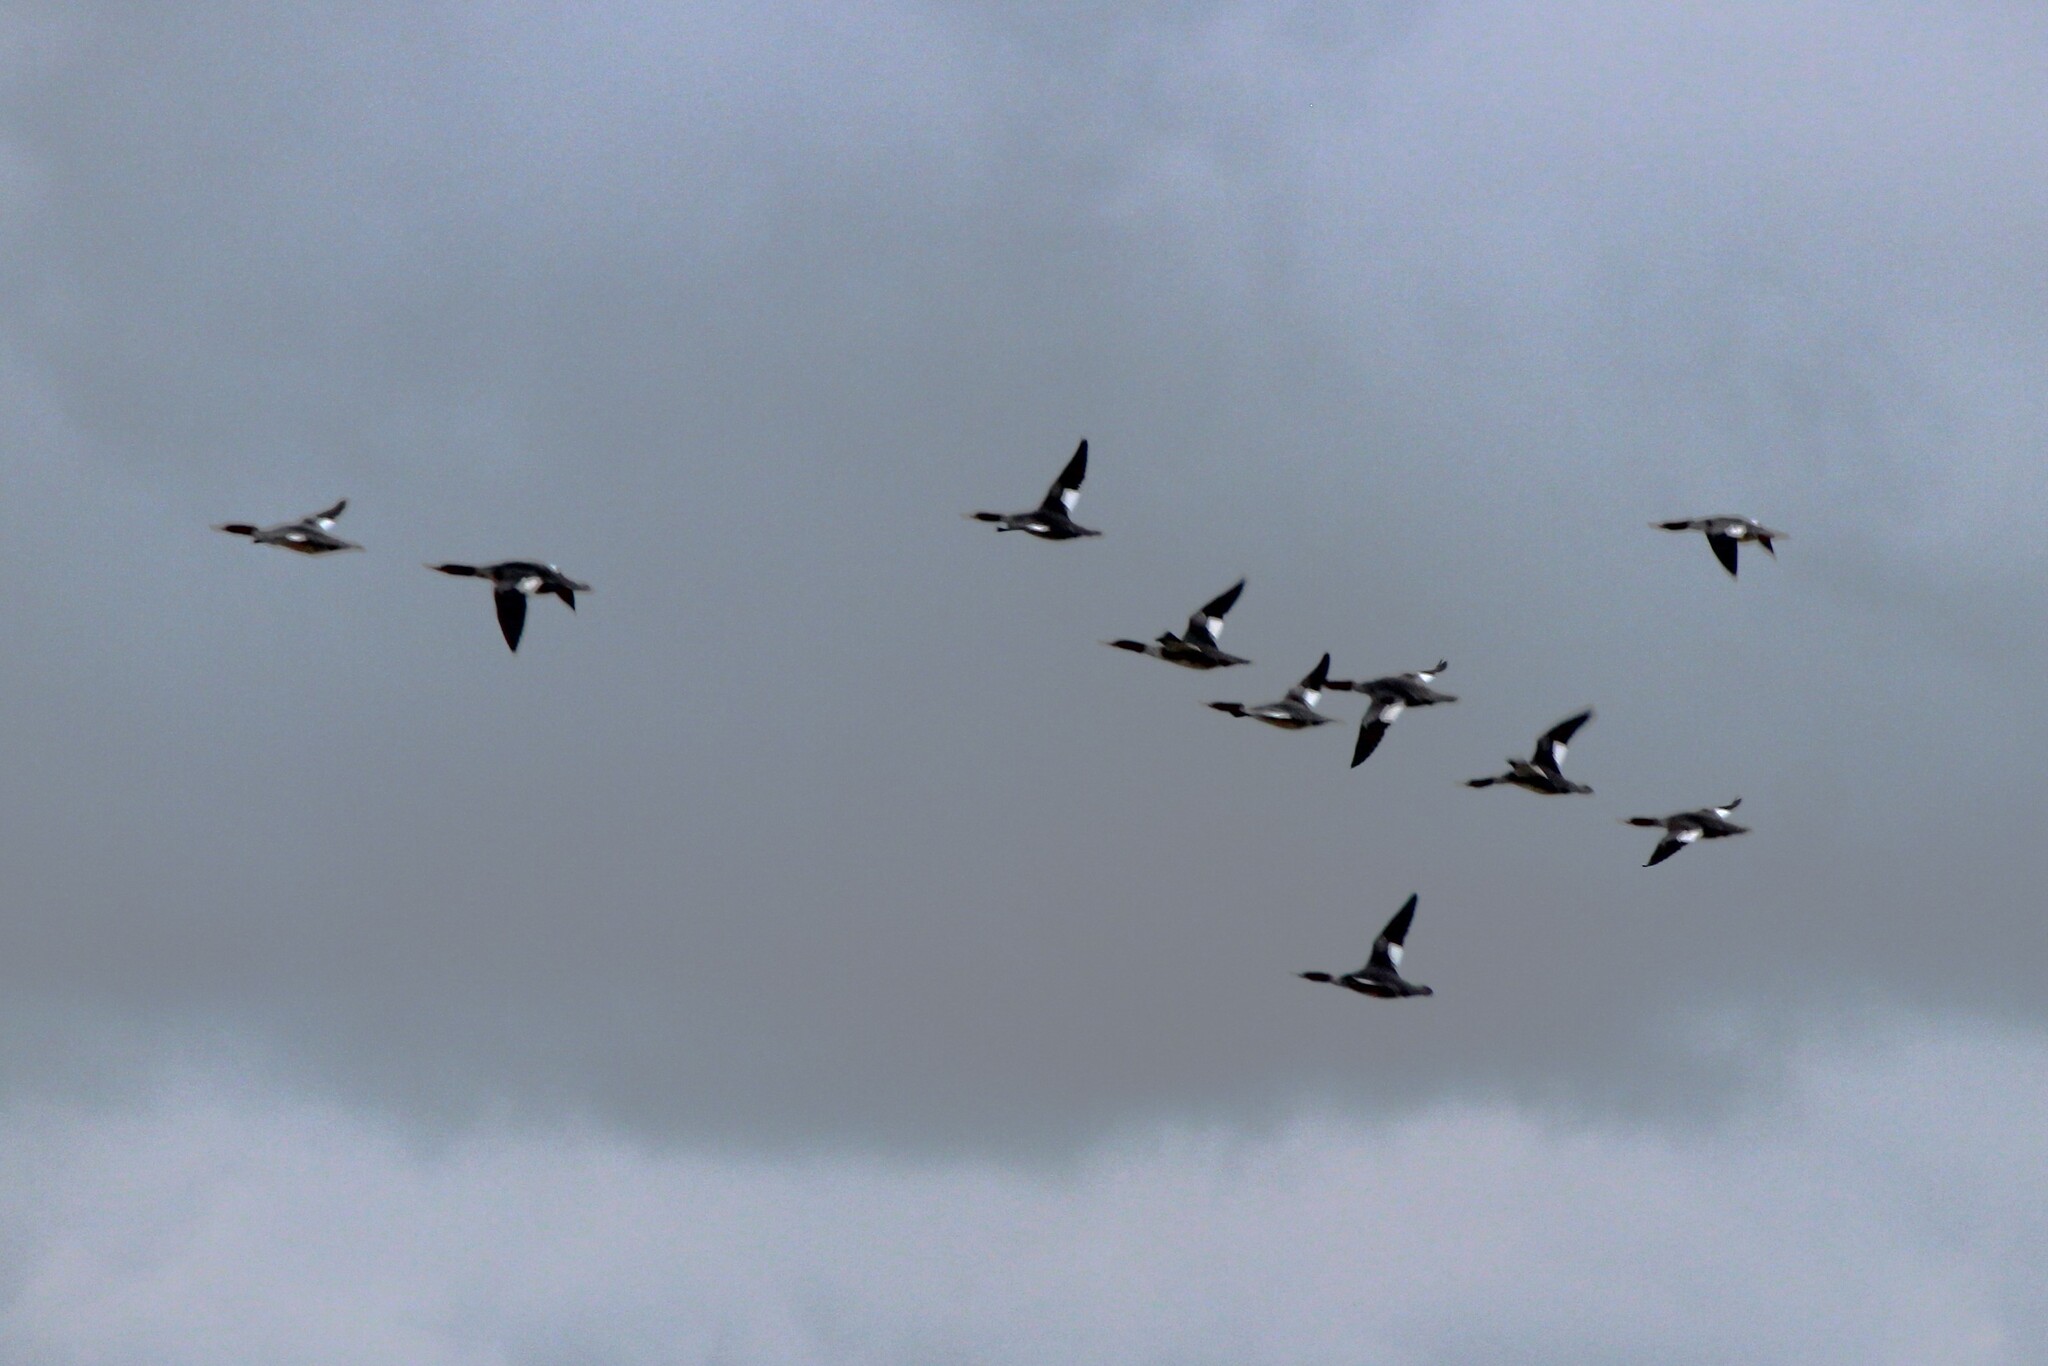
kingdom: Animalia
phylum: Chordata
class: Aves
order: Anseriformes
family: Anatidae
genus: Mergus
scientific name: Mergus merganser
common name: Common merganser
